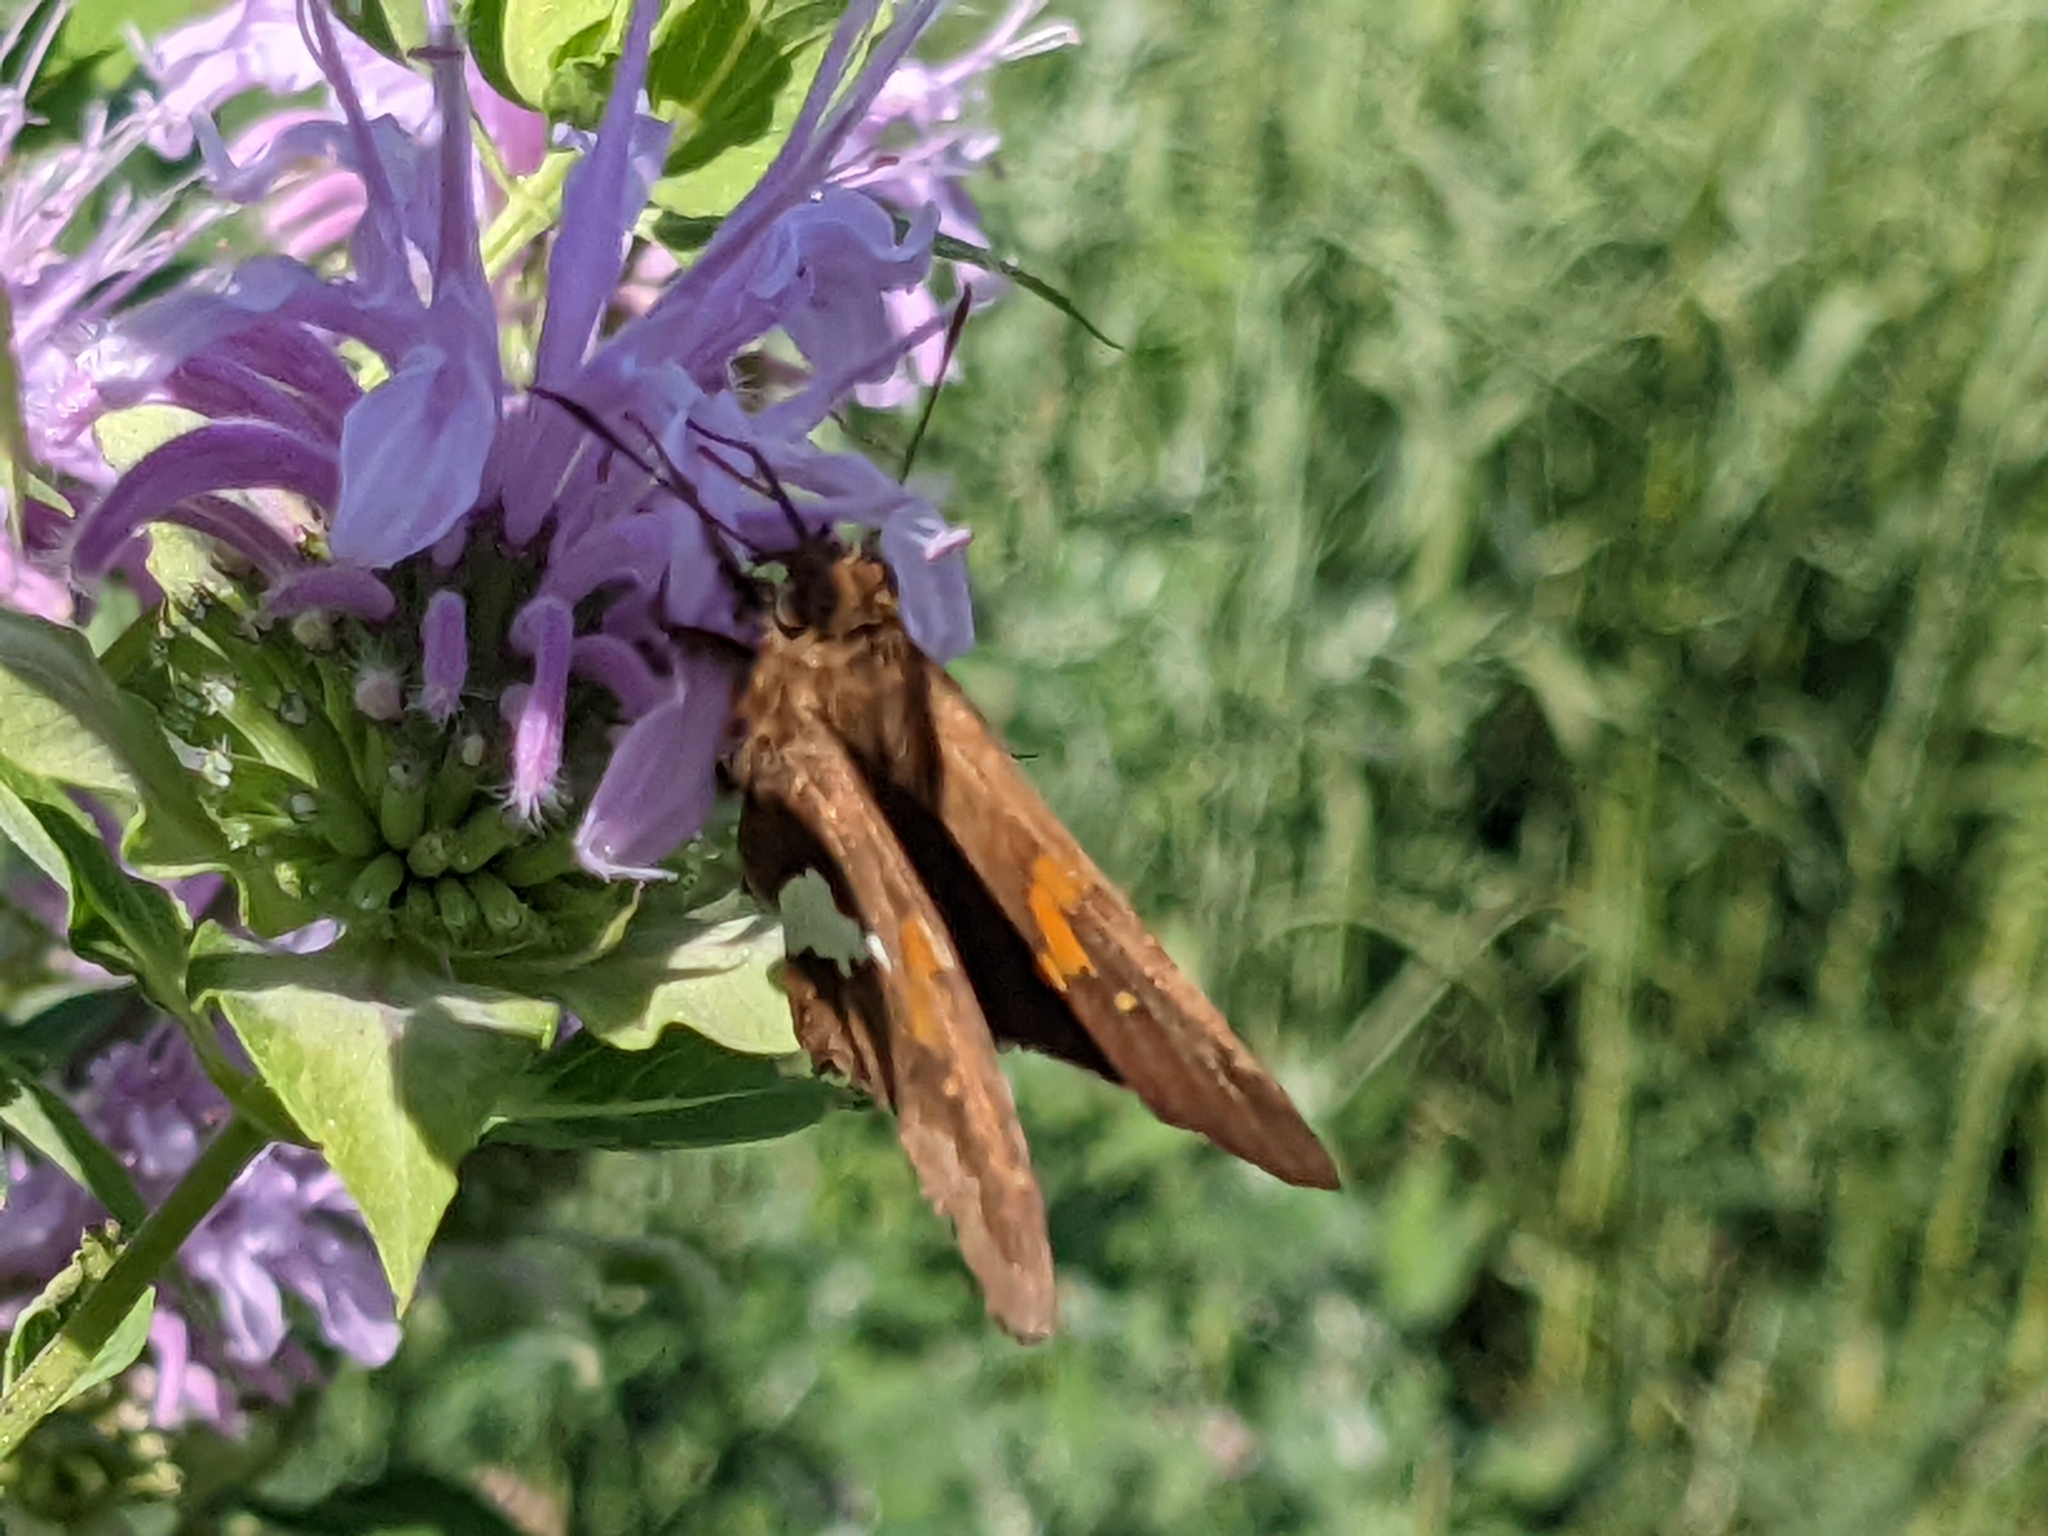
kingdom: Animalia
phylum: Arthropoda
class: Insecta
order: Lepidoptera
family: Hesperiidae
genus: Epargyreus
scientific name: Epargyreus clarus
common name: Silver-spotted skipper
